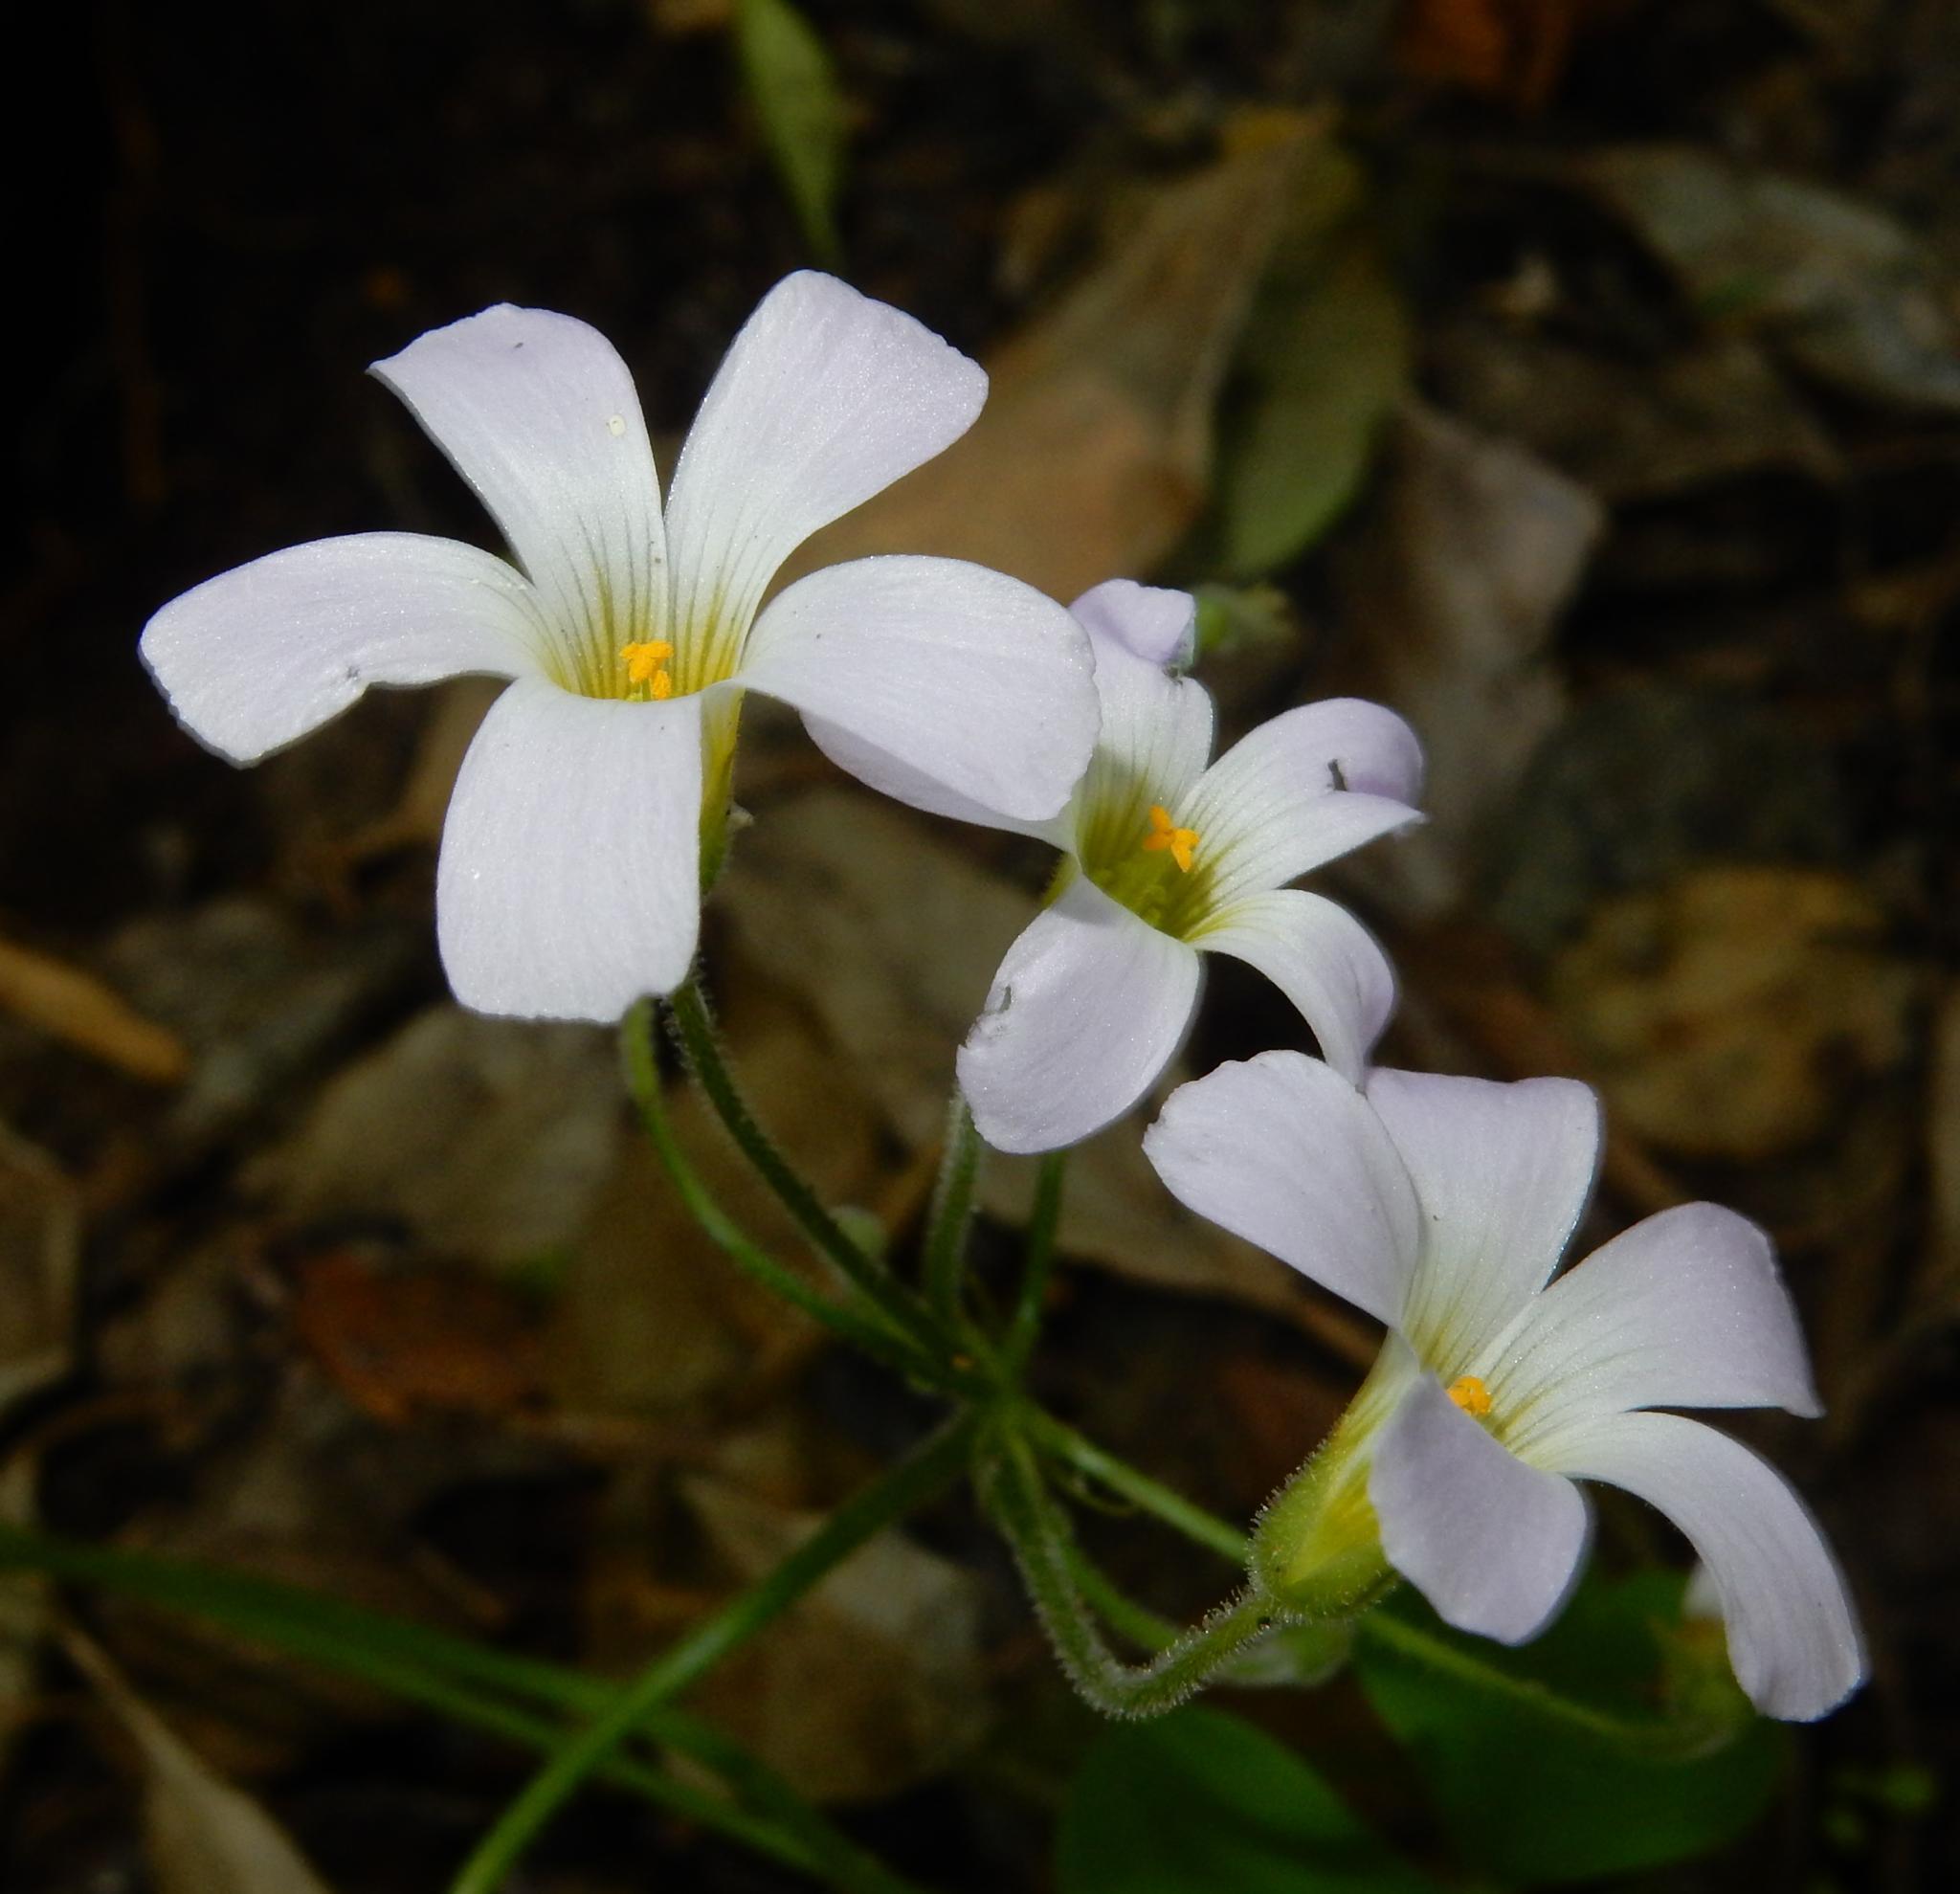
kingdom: Plantae
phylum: Tracheophyta
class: Magnoliopsida
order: Oxalidales
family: Oxalidaceae
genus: Oxalis
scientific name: Oxalis stellata
